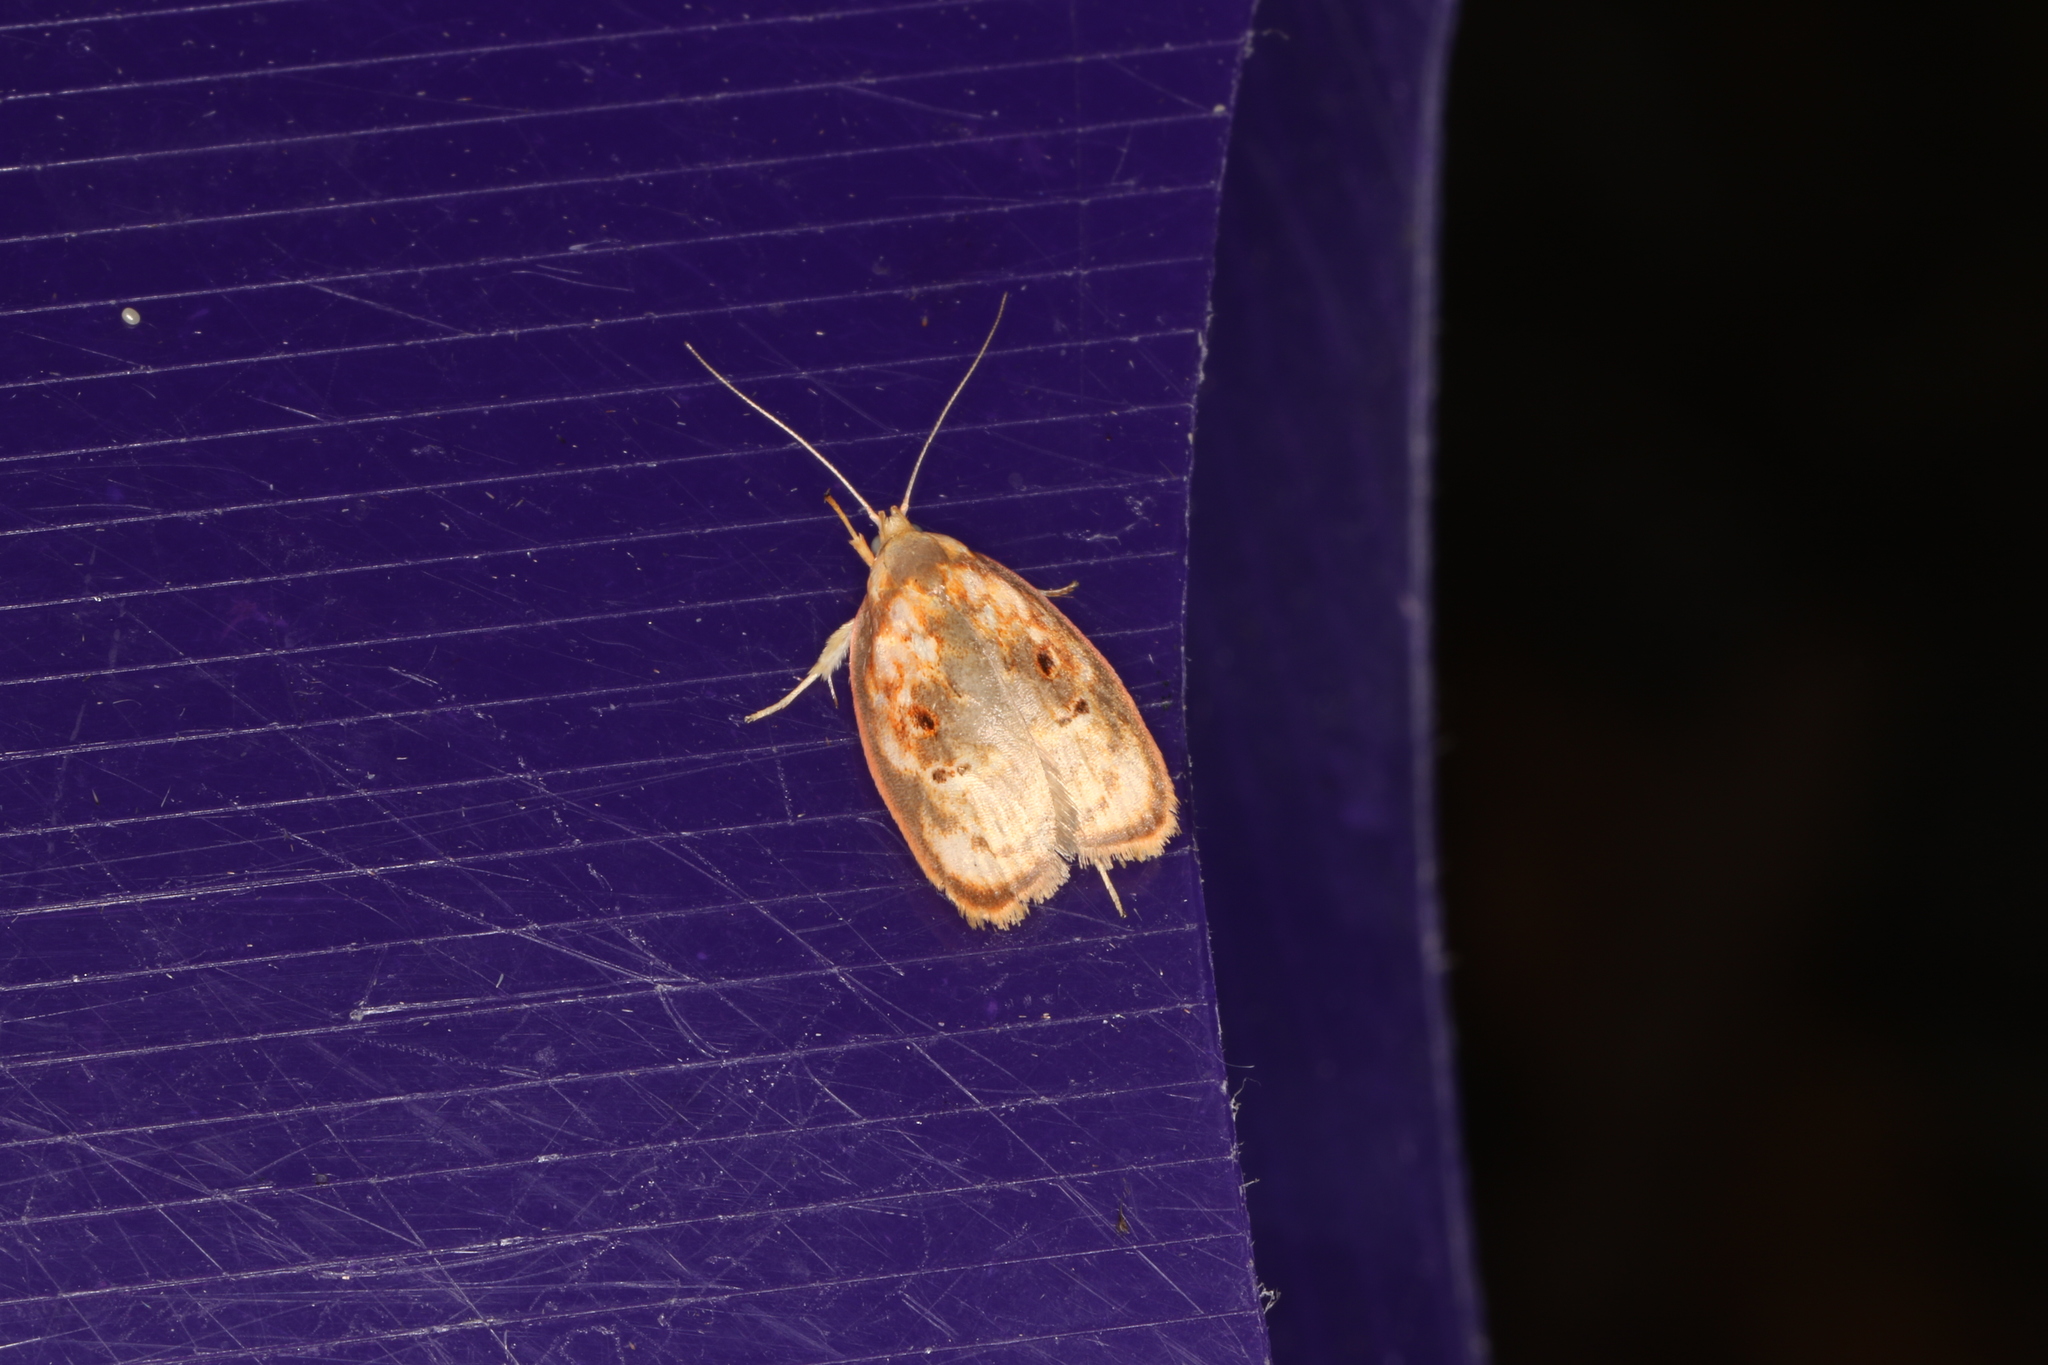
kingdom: Animalia
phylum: Arthropoda
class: Insecta
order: Lepidoptera
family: Oecophoridae
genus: Eochrois
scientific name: Eochrois sarcoxantha
